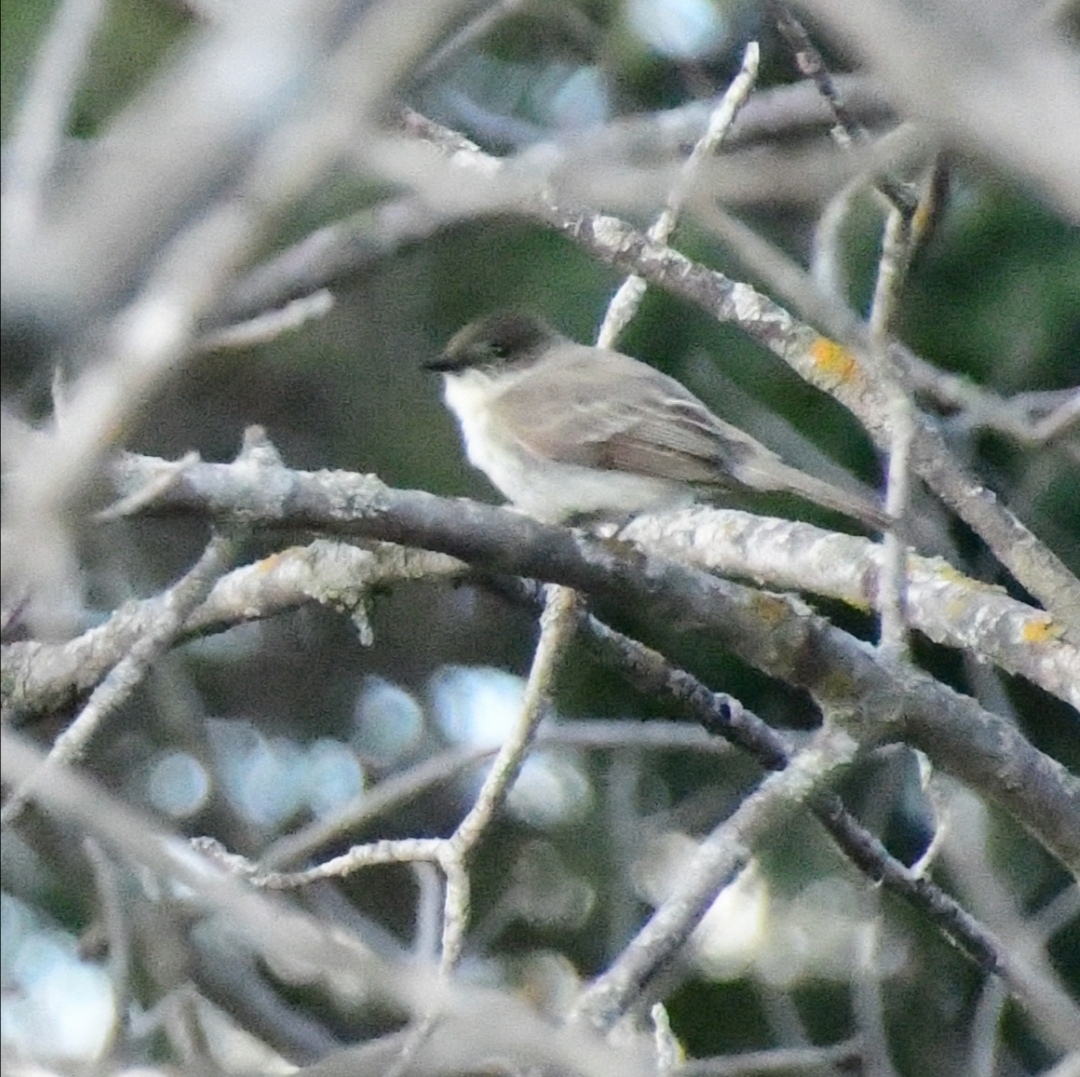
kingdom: Animalia
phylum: Chordata
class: Aves
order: Passeriformes
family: Tyrannidae
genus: Sayornis
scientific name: Sayornis phoebe
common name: Eastern phoebe
